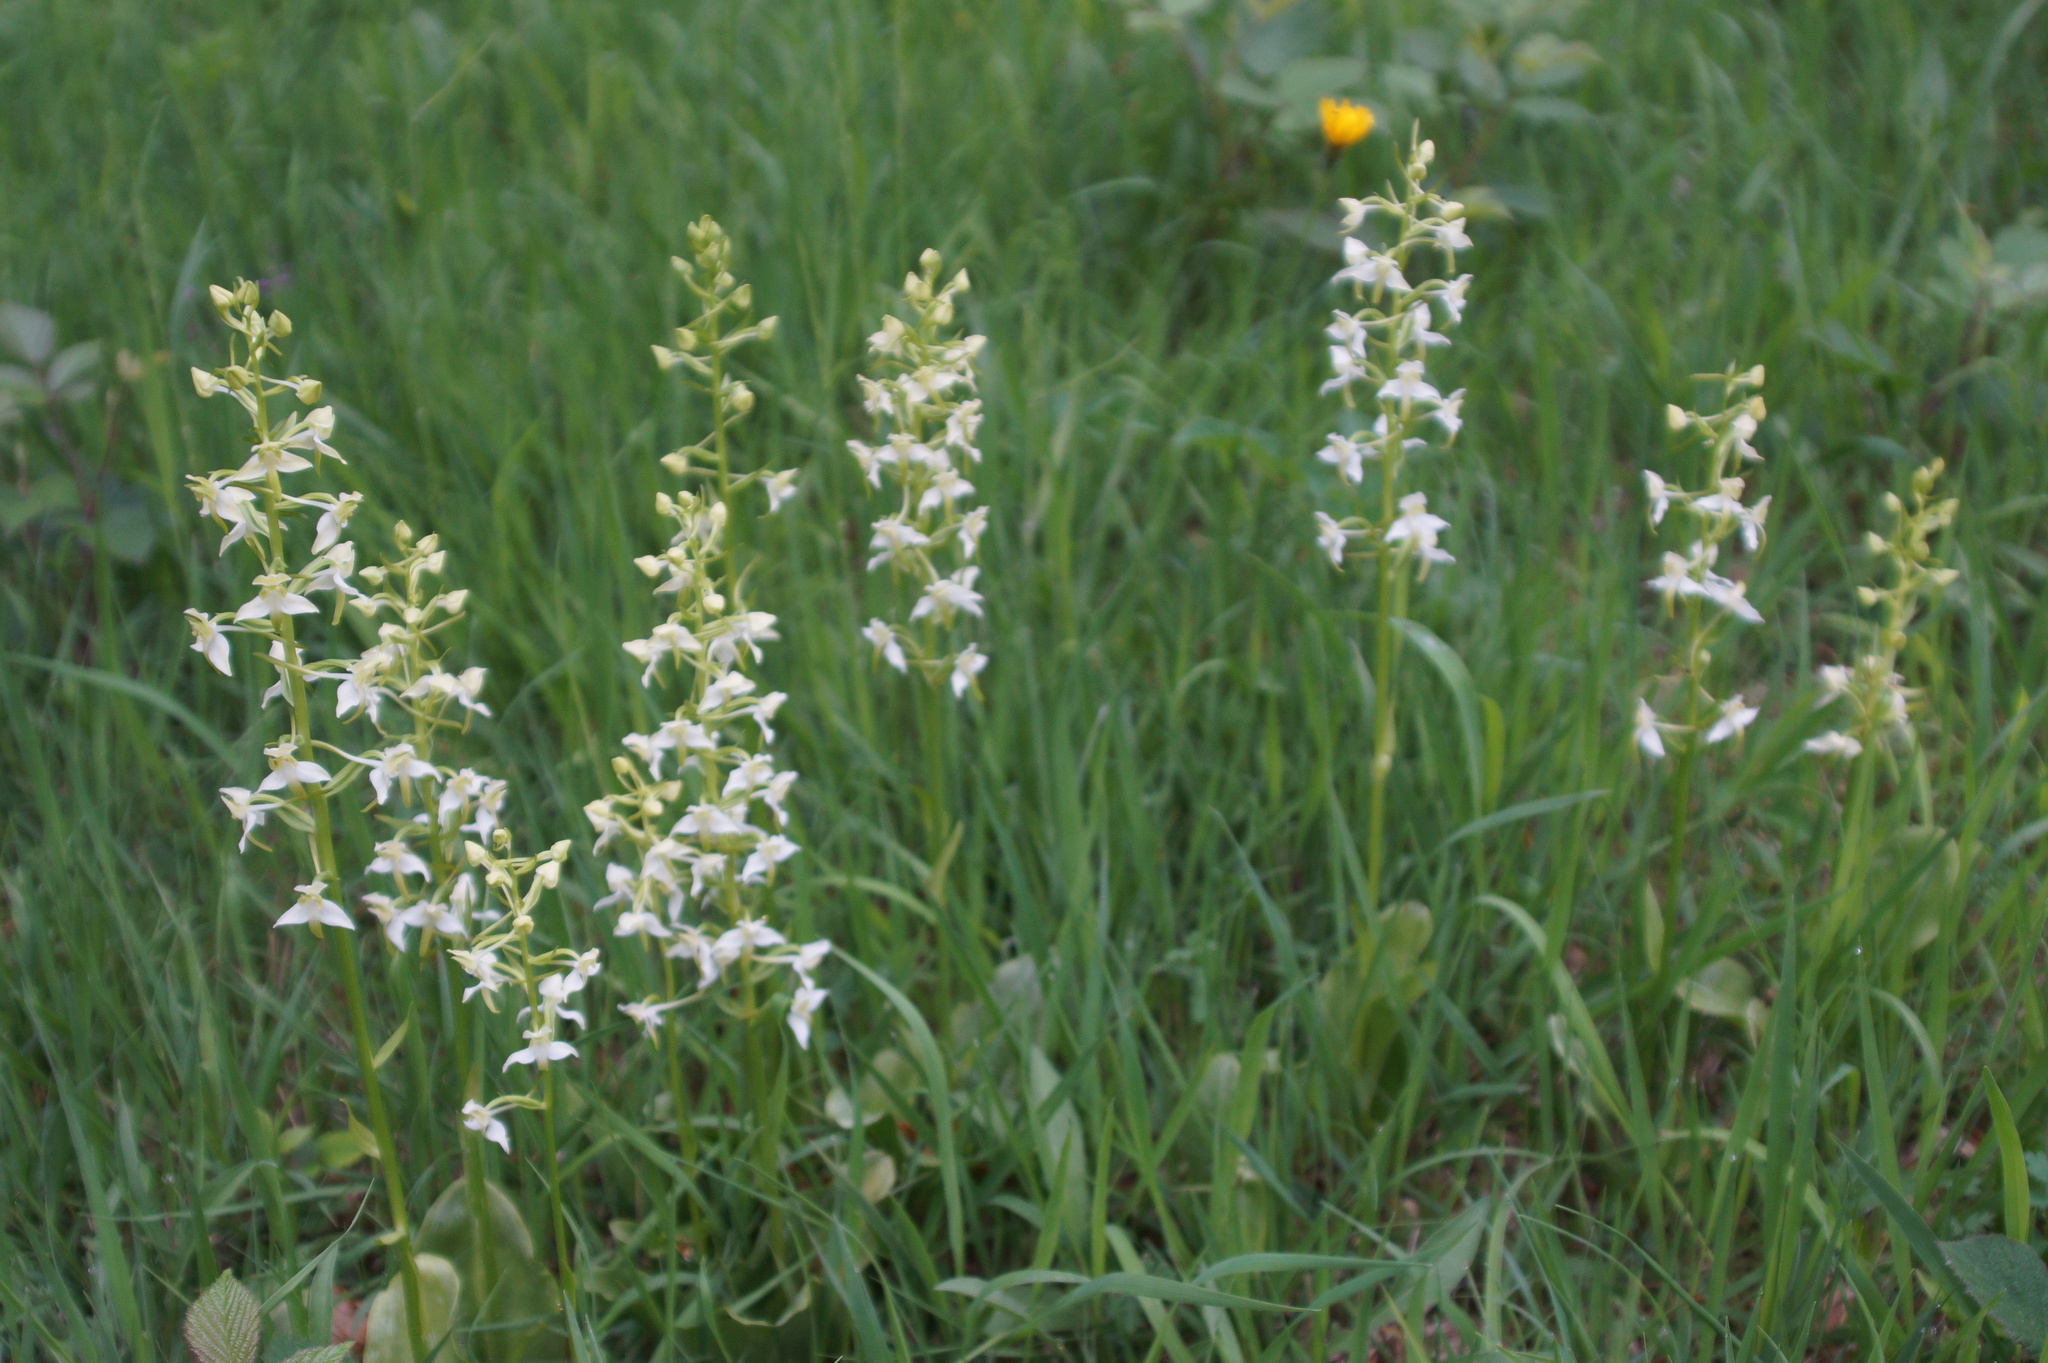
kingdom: Plantae
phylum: Tracheophyta
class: Liliopsida
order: Asparagales
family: Orchidaceae
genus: Platanthera
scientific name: Platanthera chlorantha
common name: Greater butterfly-orchid
